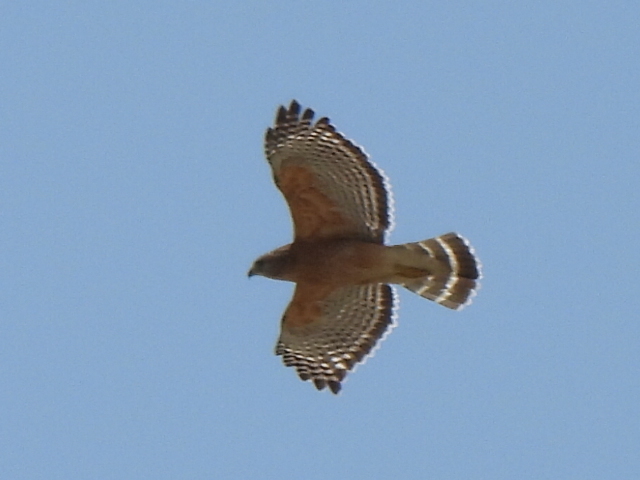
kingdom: Animalia
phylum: Chordata
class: Aves
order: Accipitriformes
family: Accipitridae
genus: Buteo
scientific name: Buteo lineatus
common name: Red-shouldered hawk
